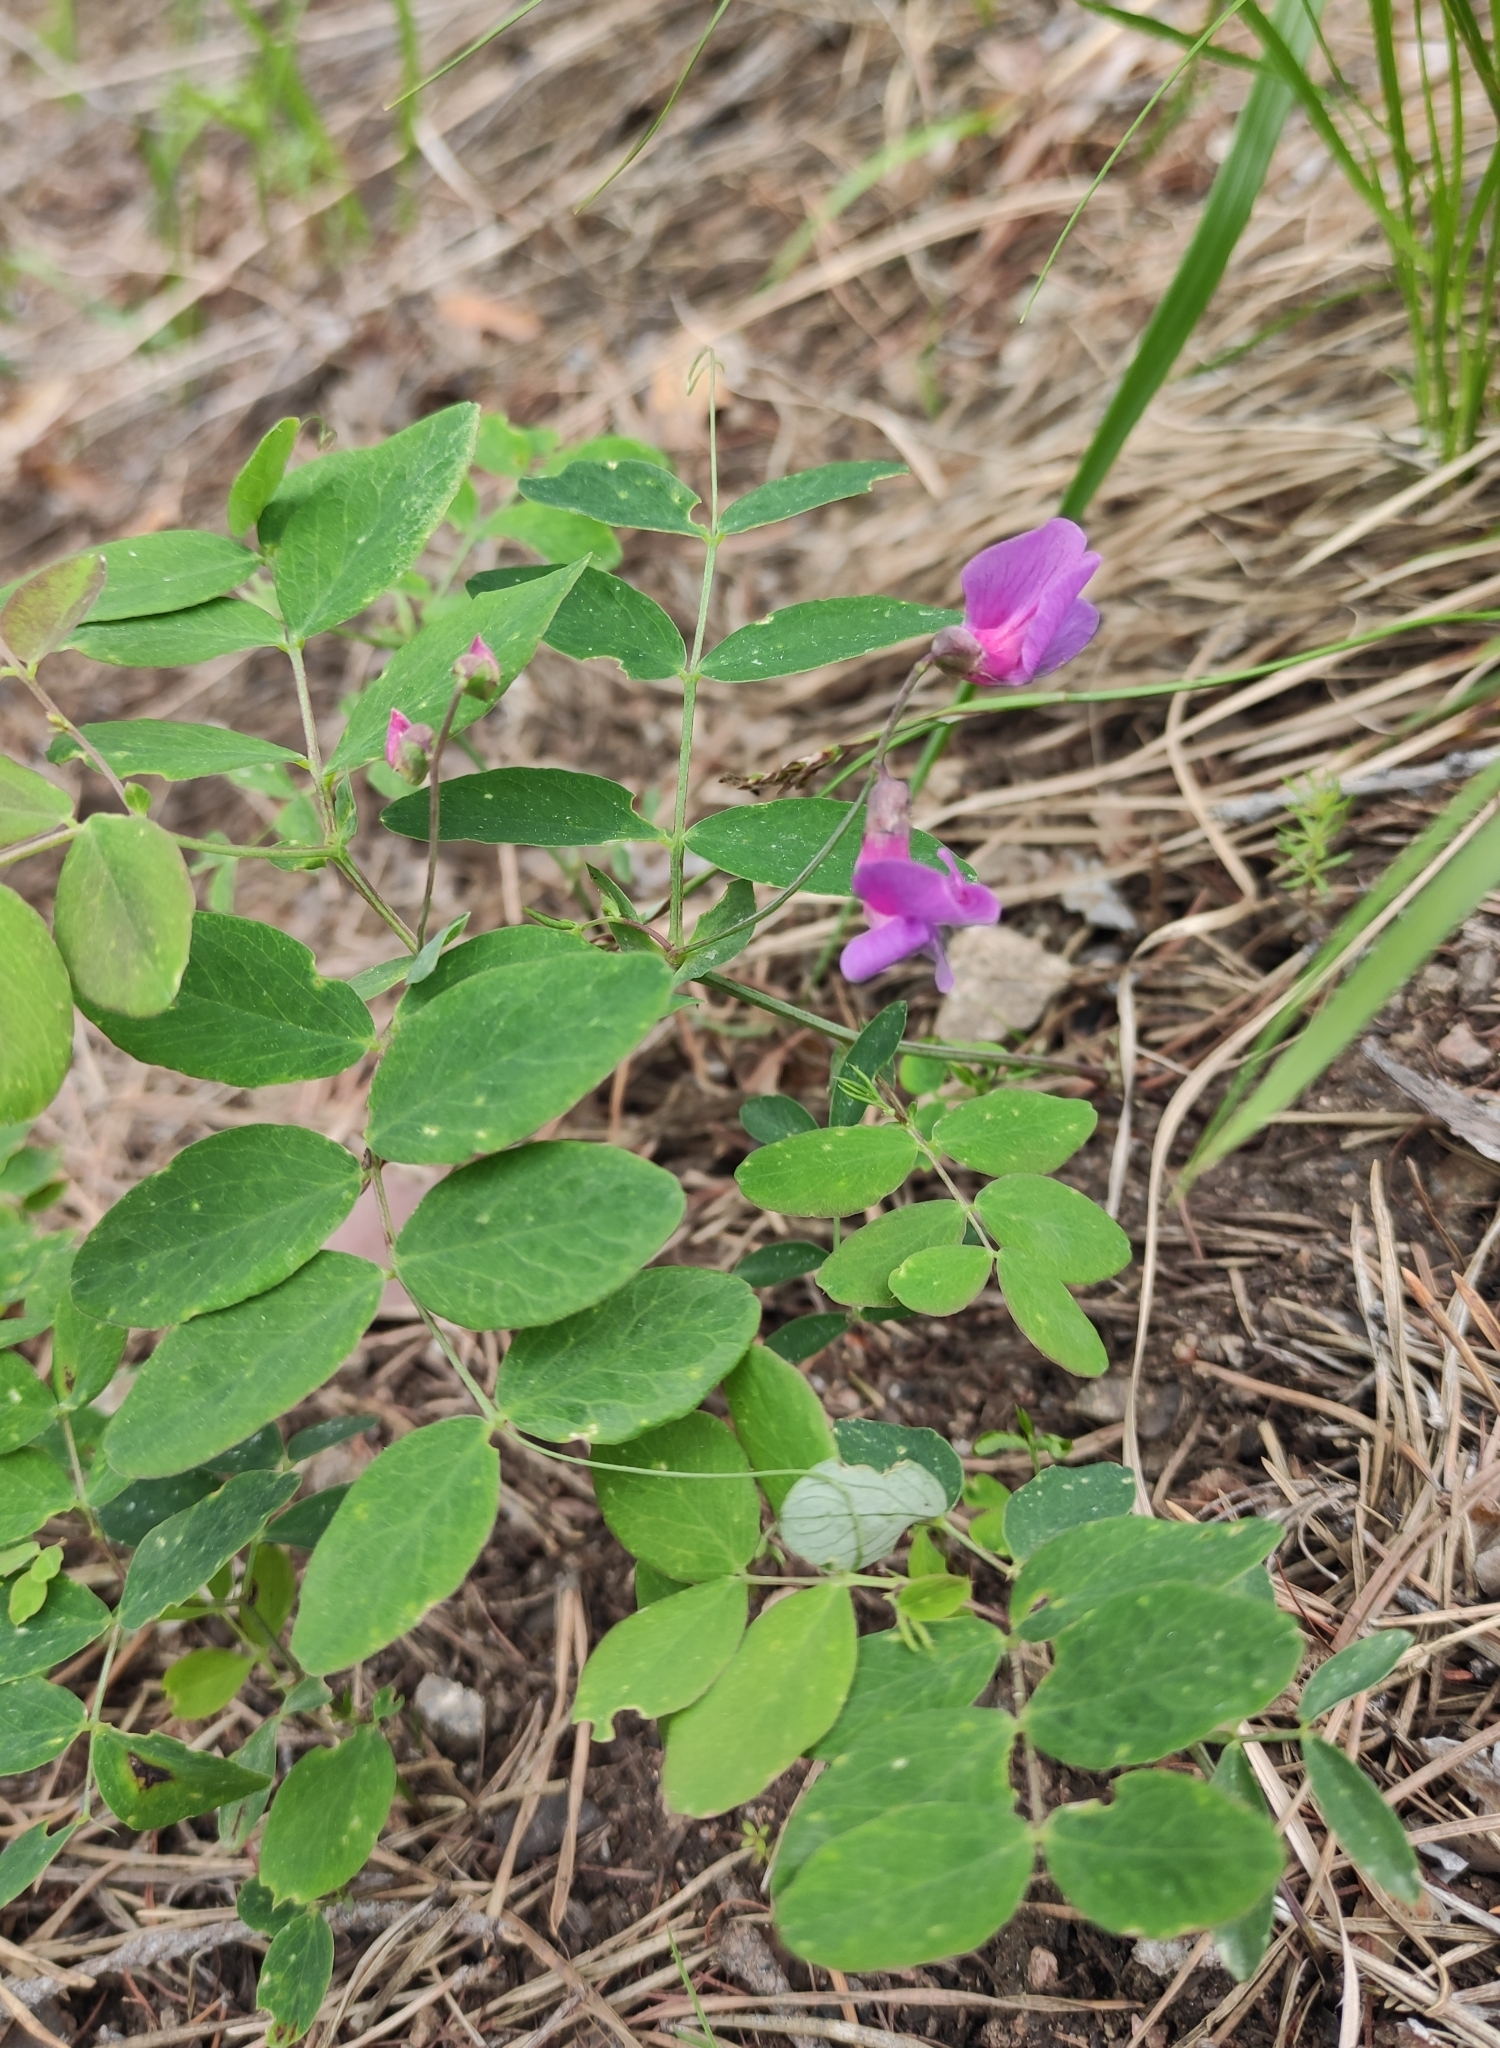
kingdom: Plantae
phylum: Tracheophyta
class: Magnoliopsida
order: Fabales
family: Fabaceae
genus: Lathyrus
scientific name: Lathyrus humilis
